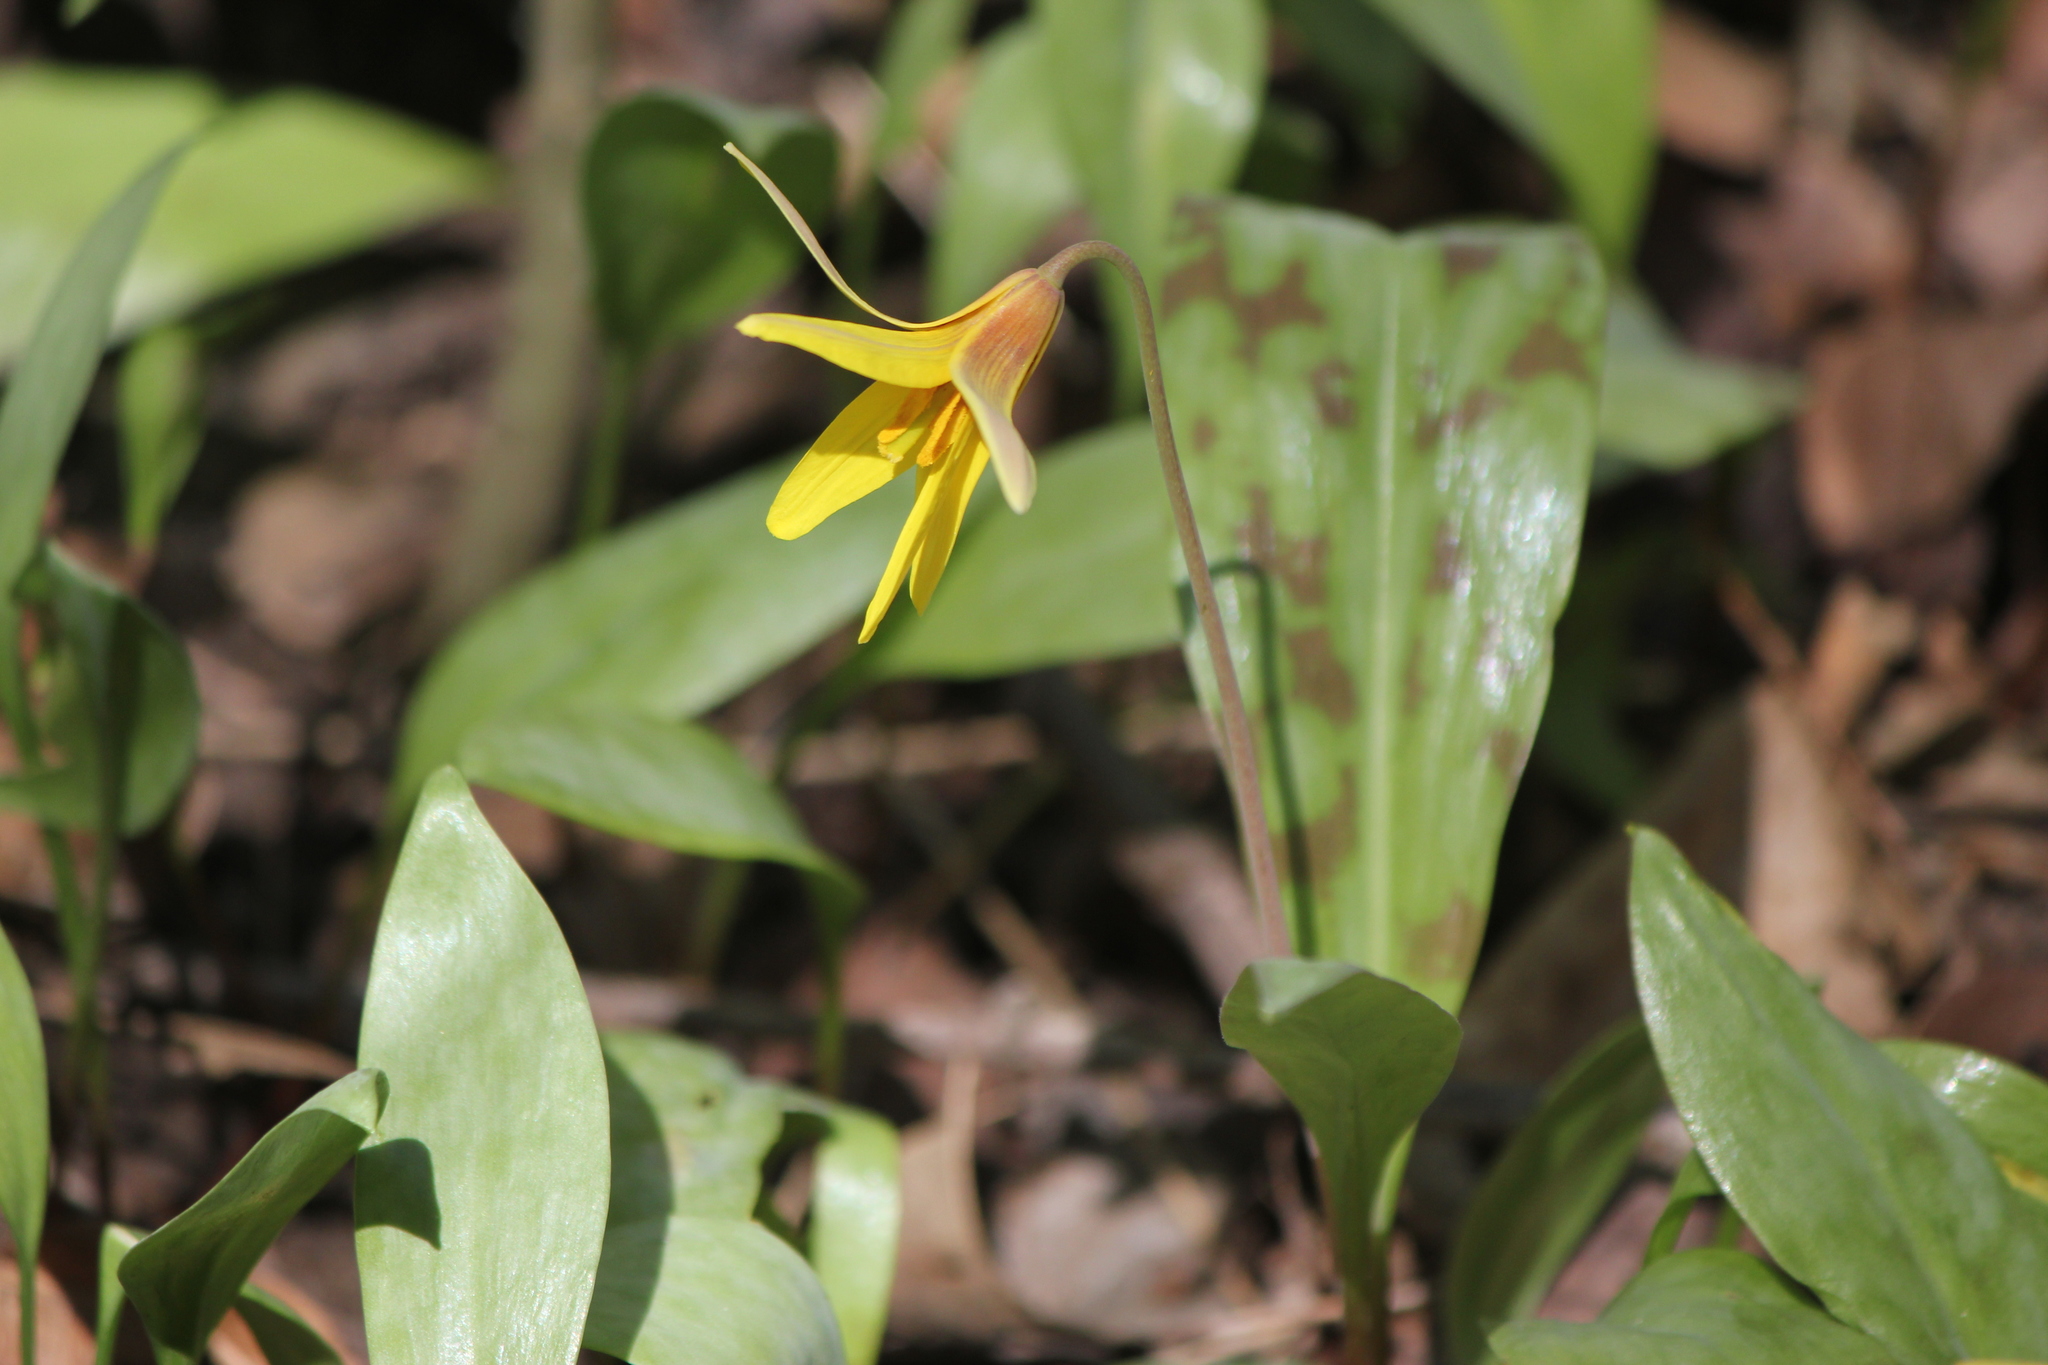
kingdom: Plantae
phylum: Tracheophyta
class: Liliopsida
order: Liliales
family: Liliaceae
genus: Erythronium
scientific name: Erythronium americanum
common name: Yellow adder's-tongue
